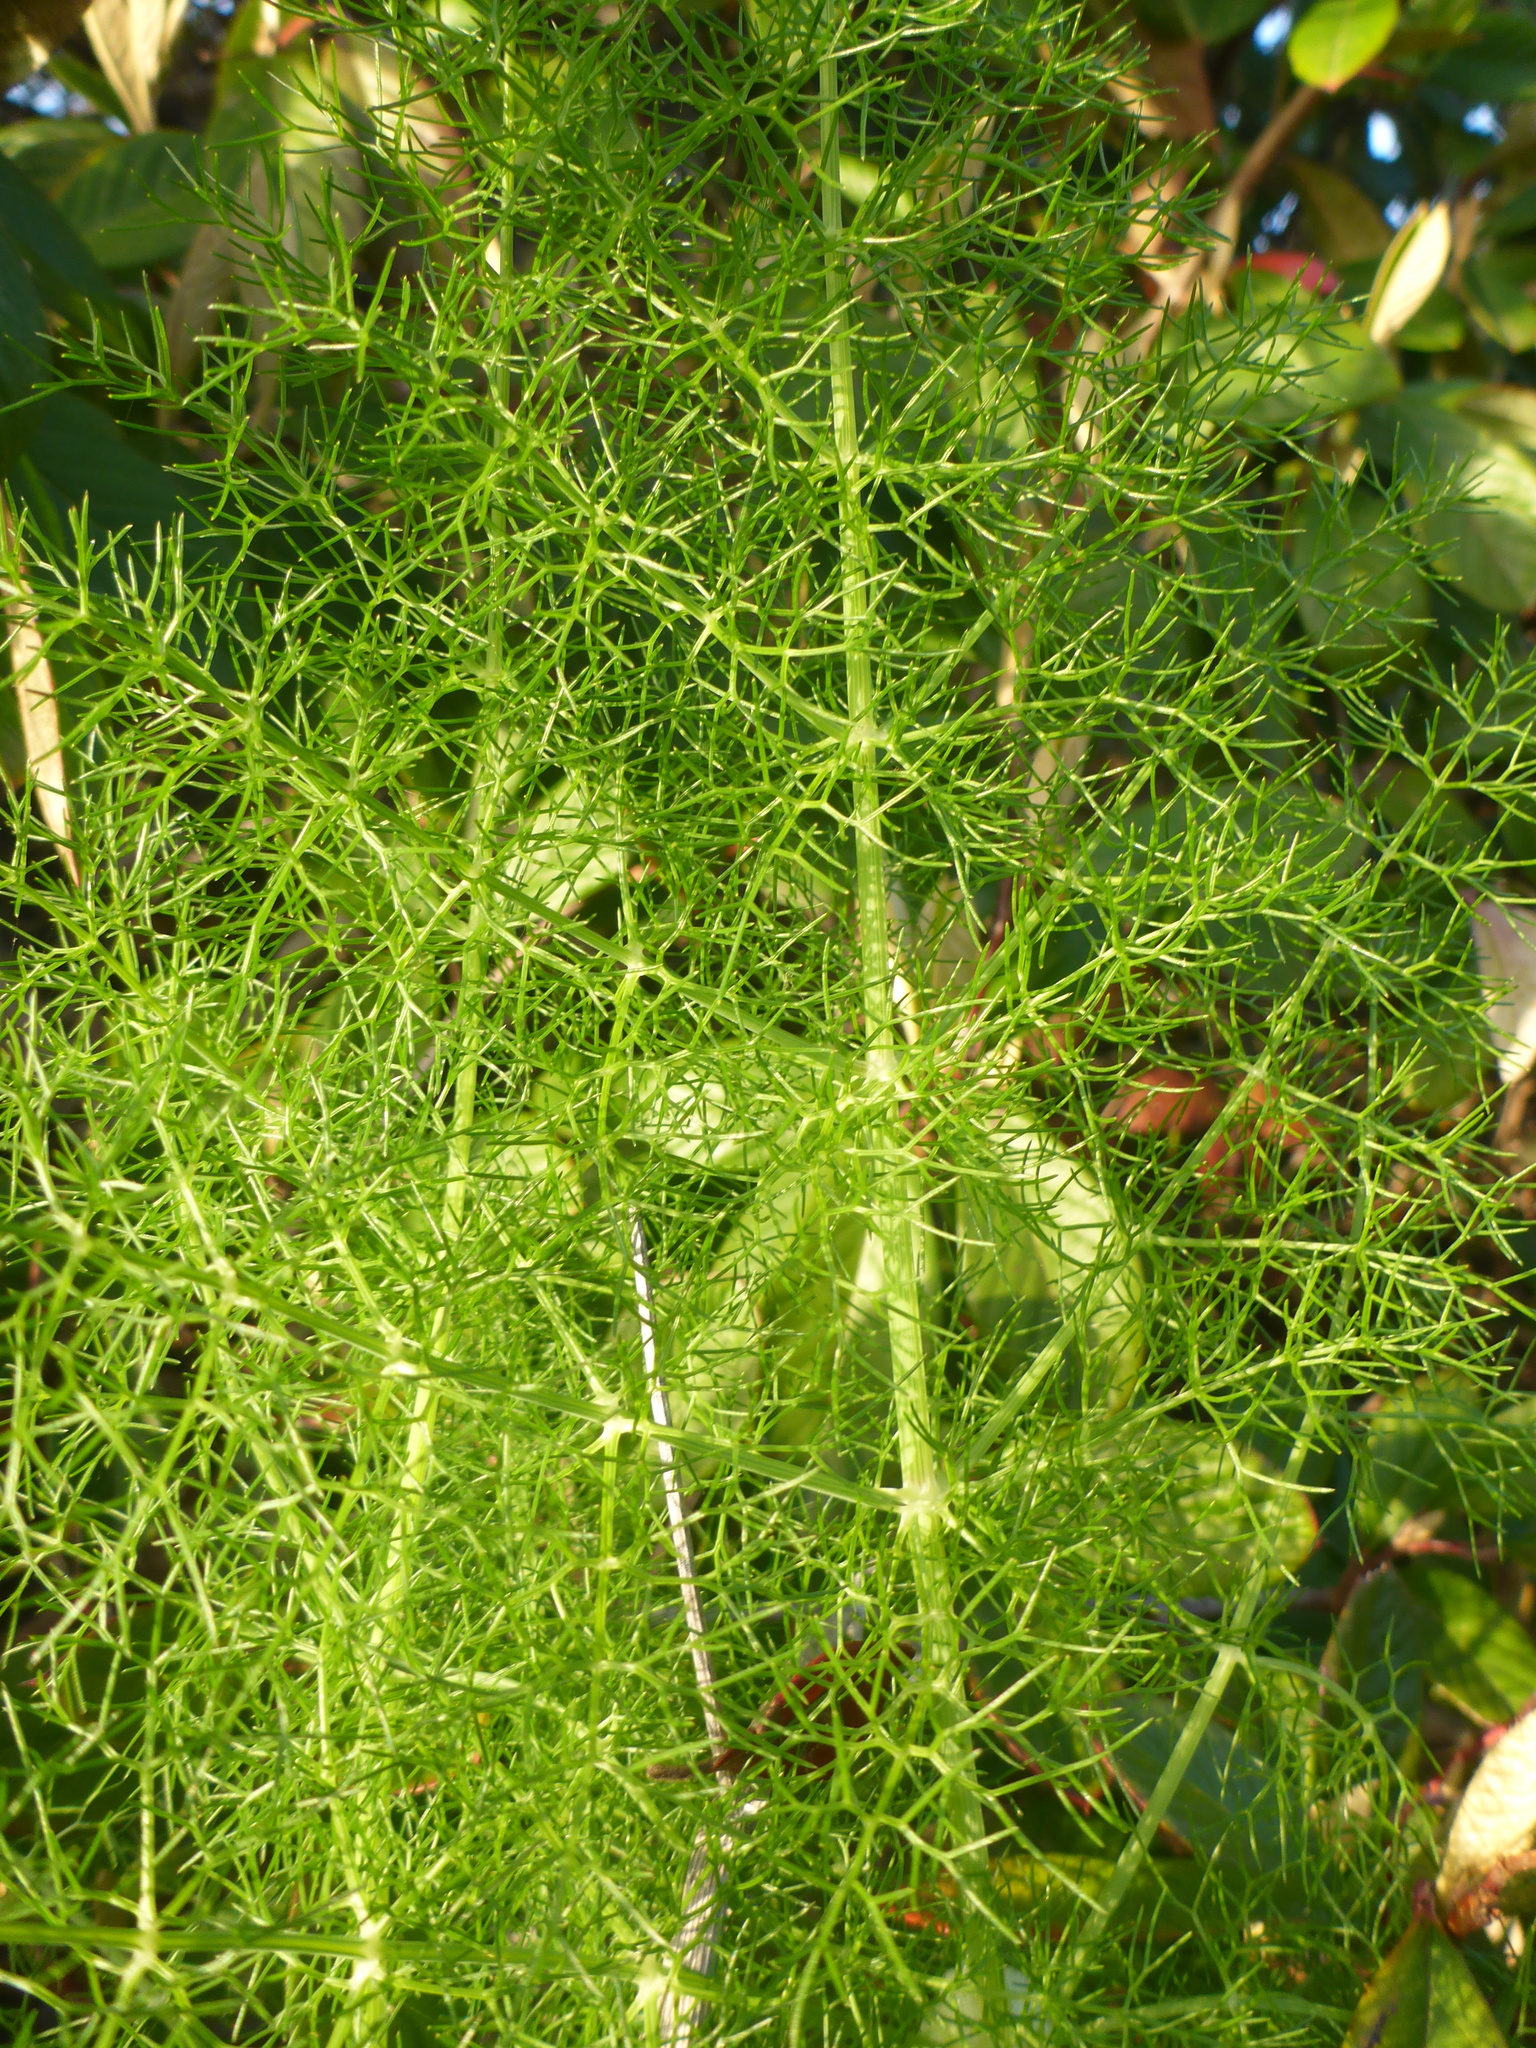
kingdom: Plantae
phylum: Tracheophyta
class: Magnoliopsida
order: Apiales
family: Apiaceae
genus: Foeniculum
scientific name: Foeniculum vulgare
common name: Fennel
